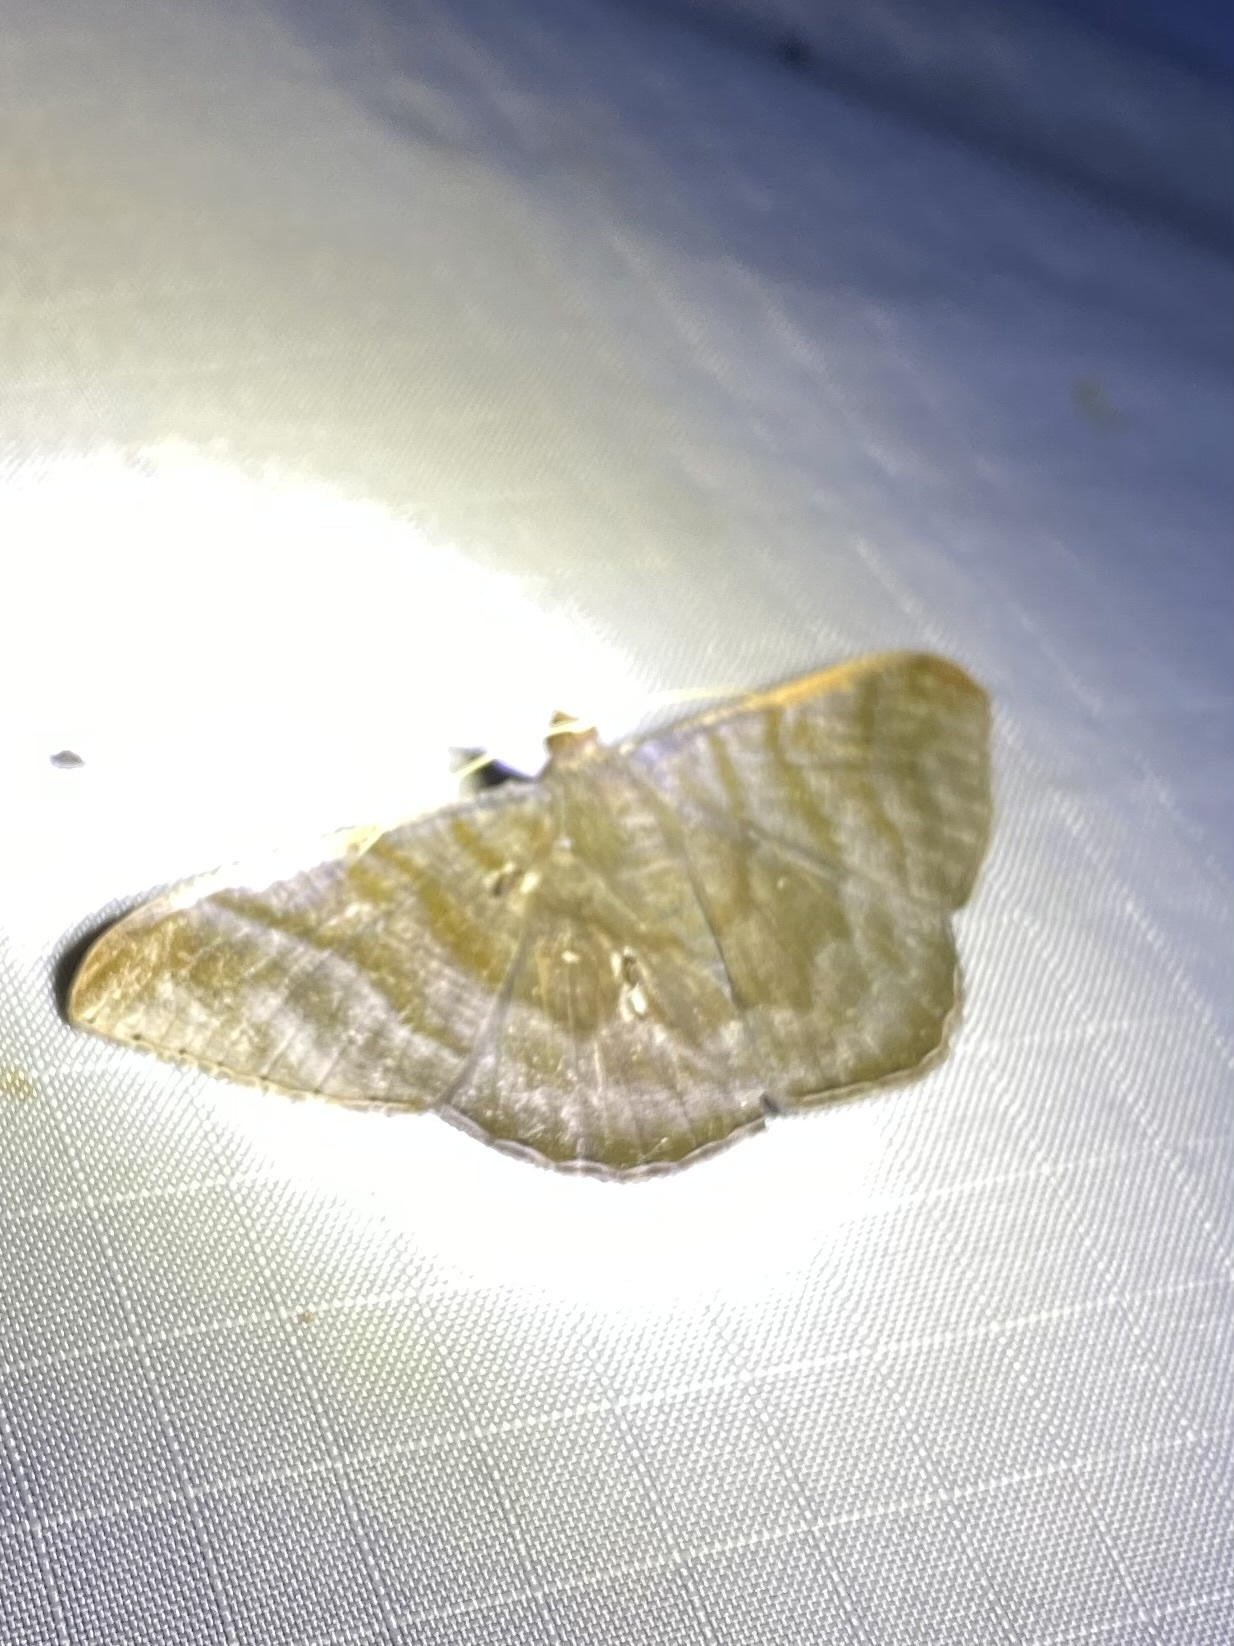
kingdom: Animalia
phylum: Arthropoda
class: Insecta
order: Lepidoptera
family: Geometridae
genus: Sphacelodes
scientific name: Sphacelodes vulneraria
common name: Looper moth
